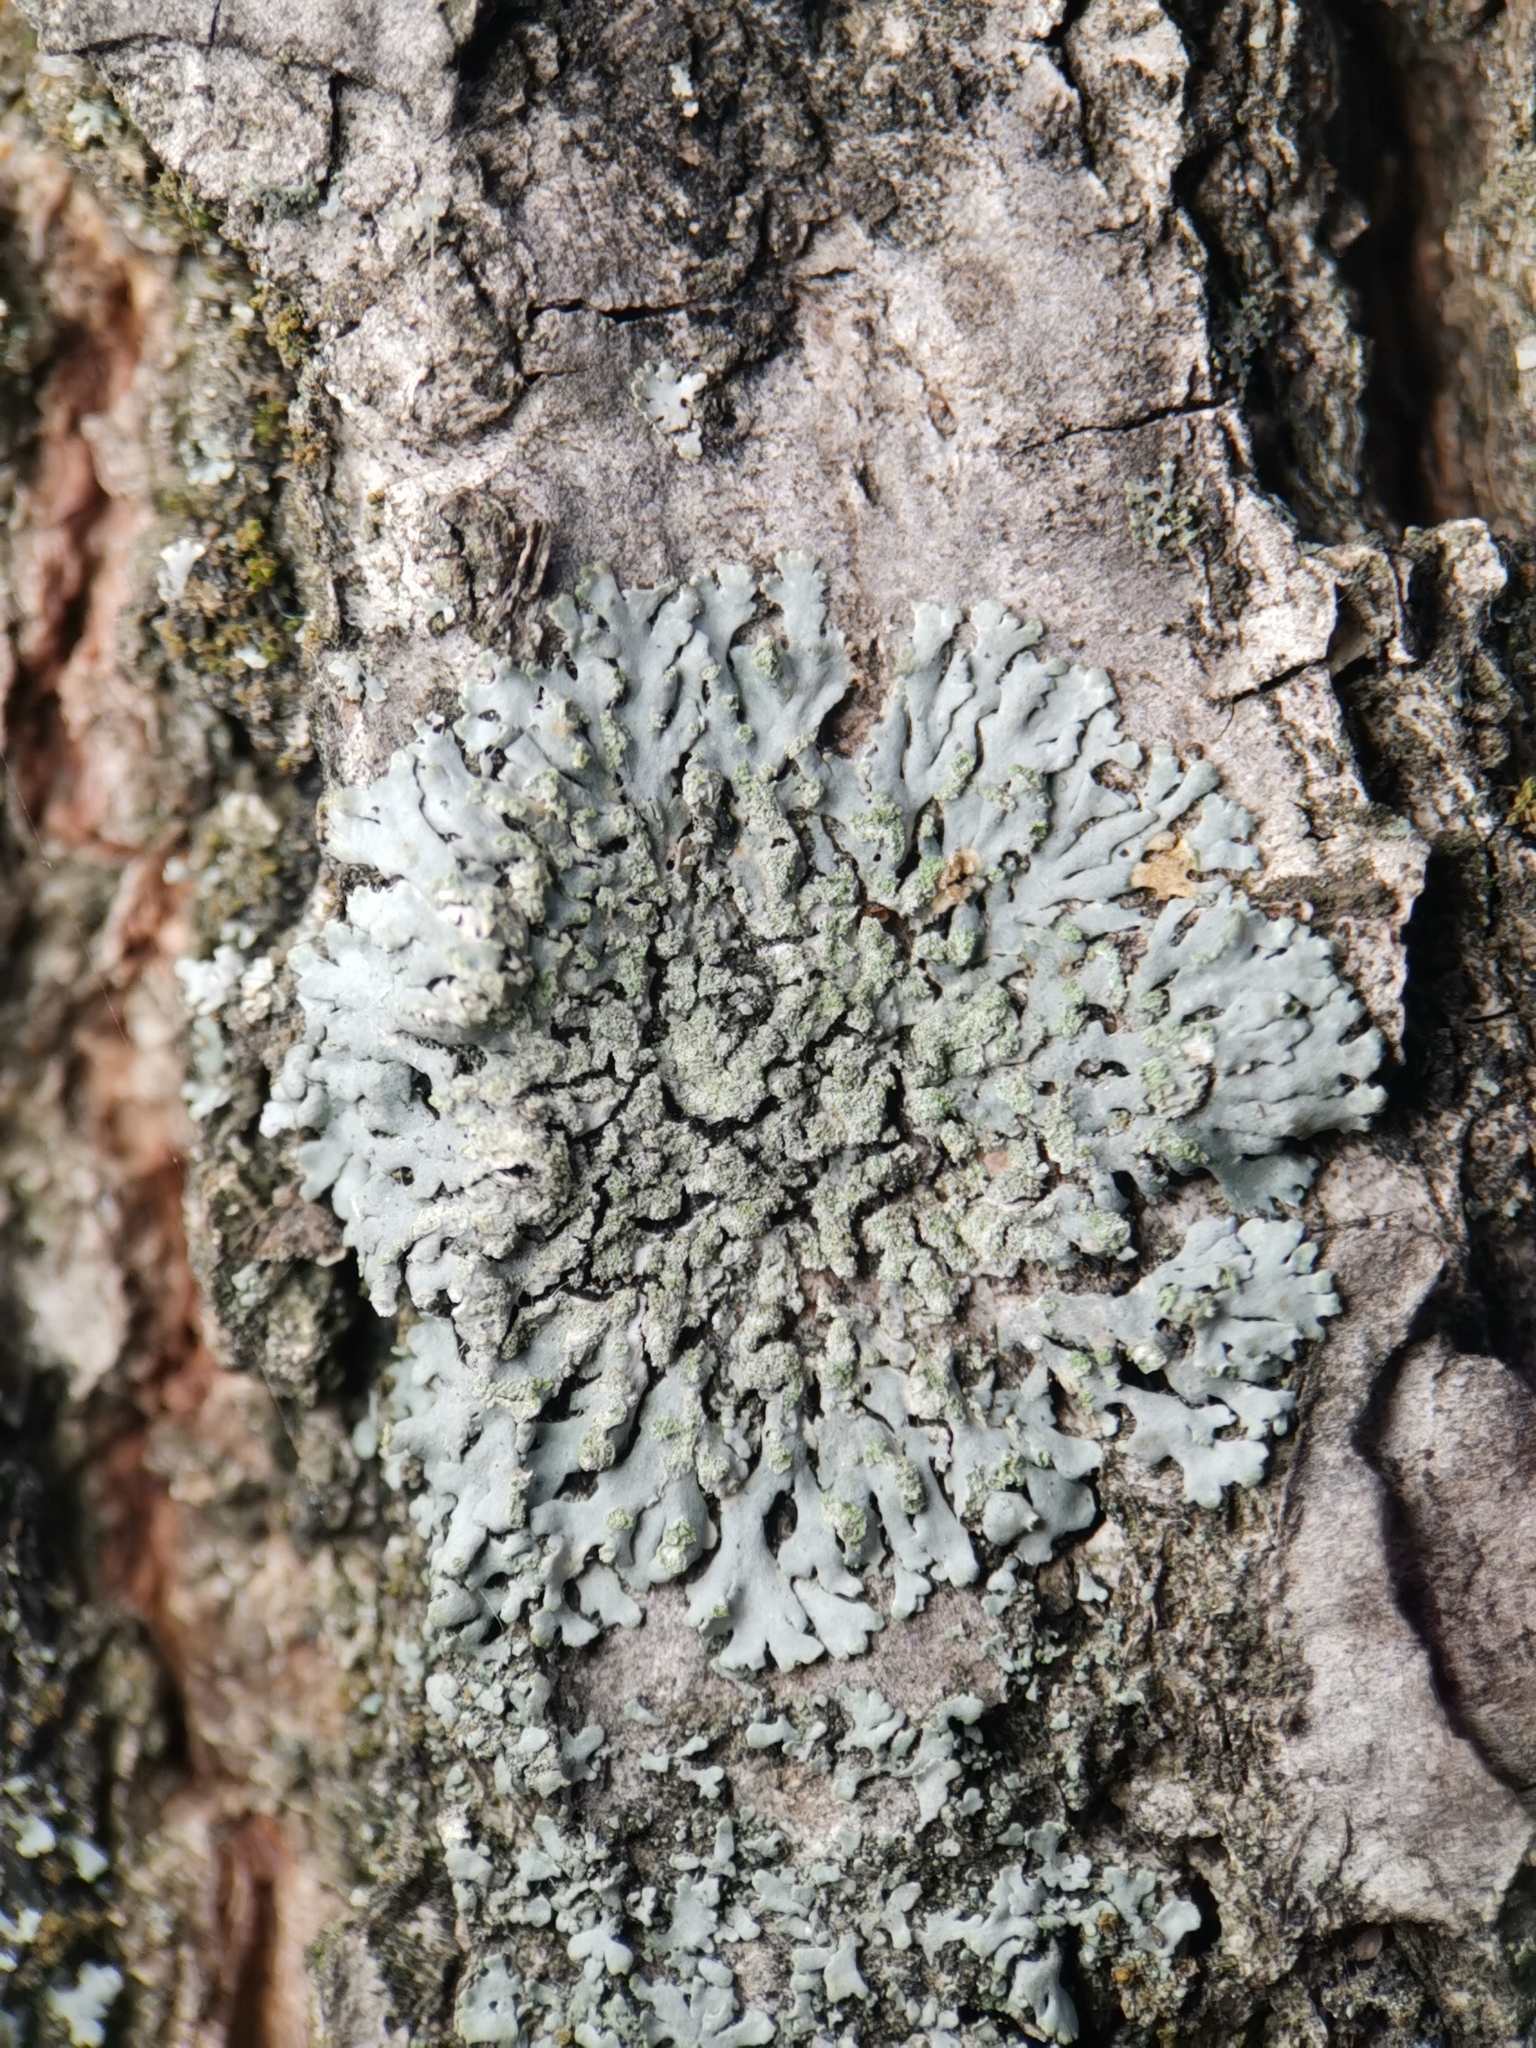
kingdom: Fungi
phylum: Ascomycota
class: Lecanoromycetes
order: Caliciales
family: Physciaceae
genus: Phaeophyscia
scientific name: Phaeophyscia orbicularis
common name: Mealy shadow lichen
